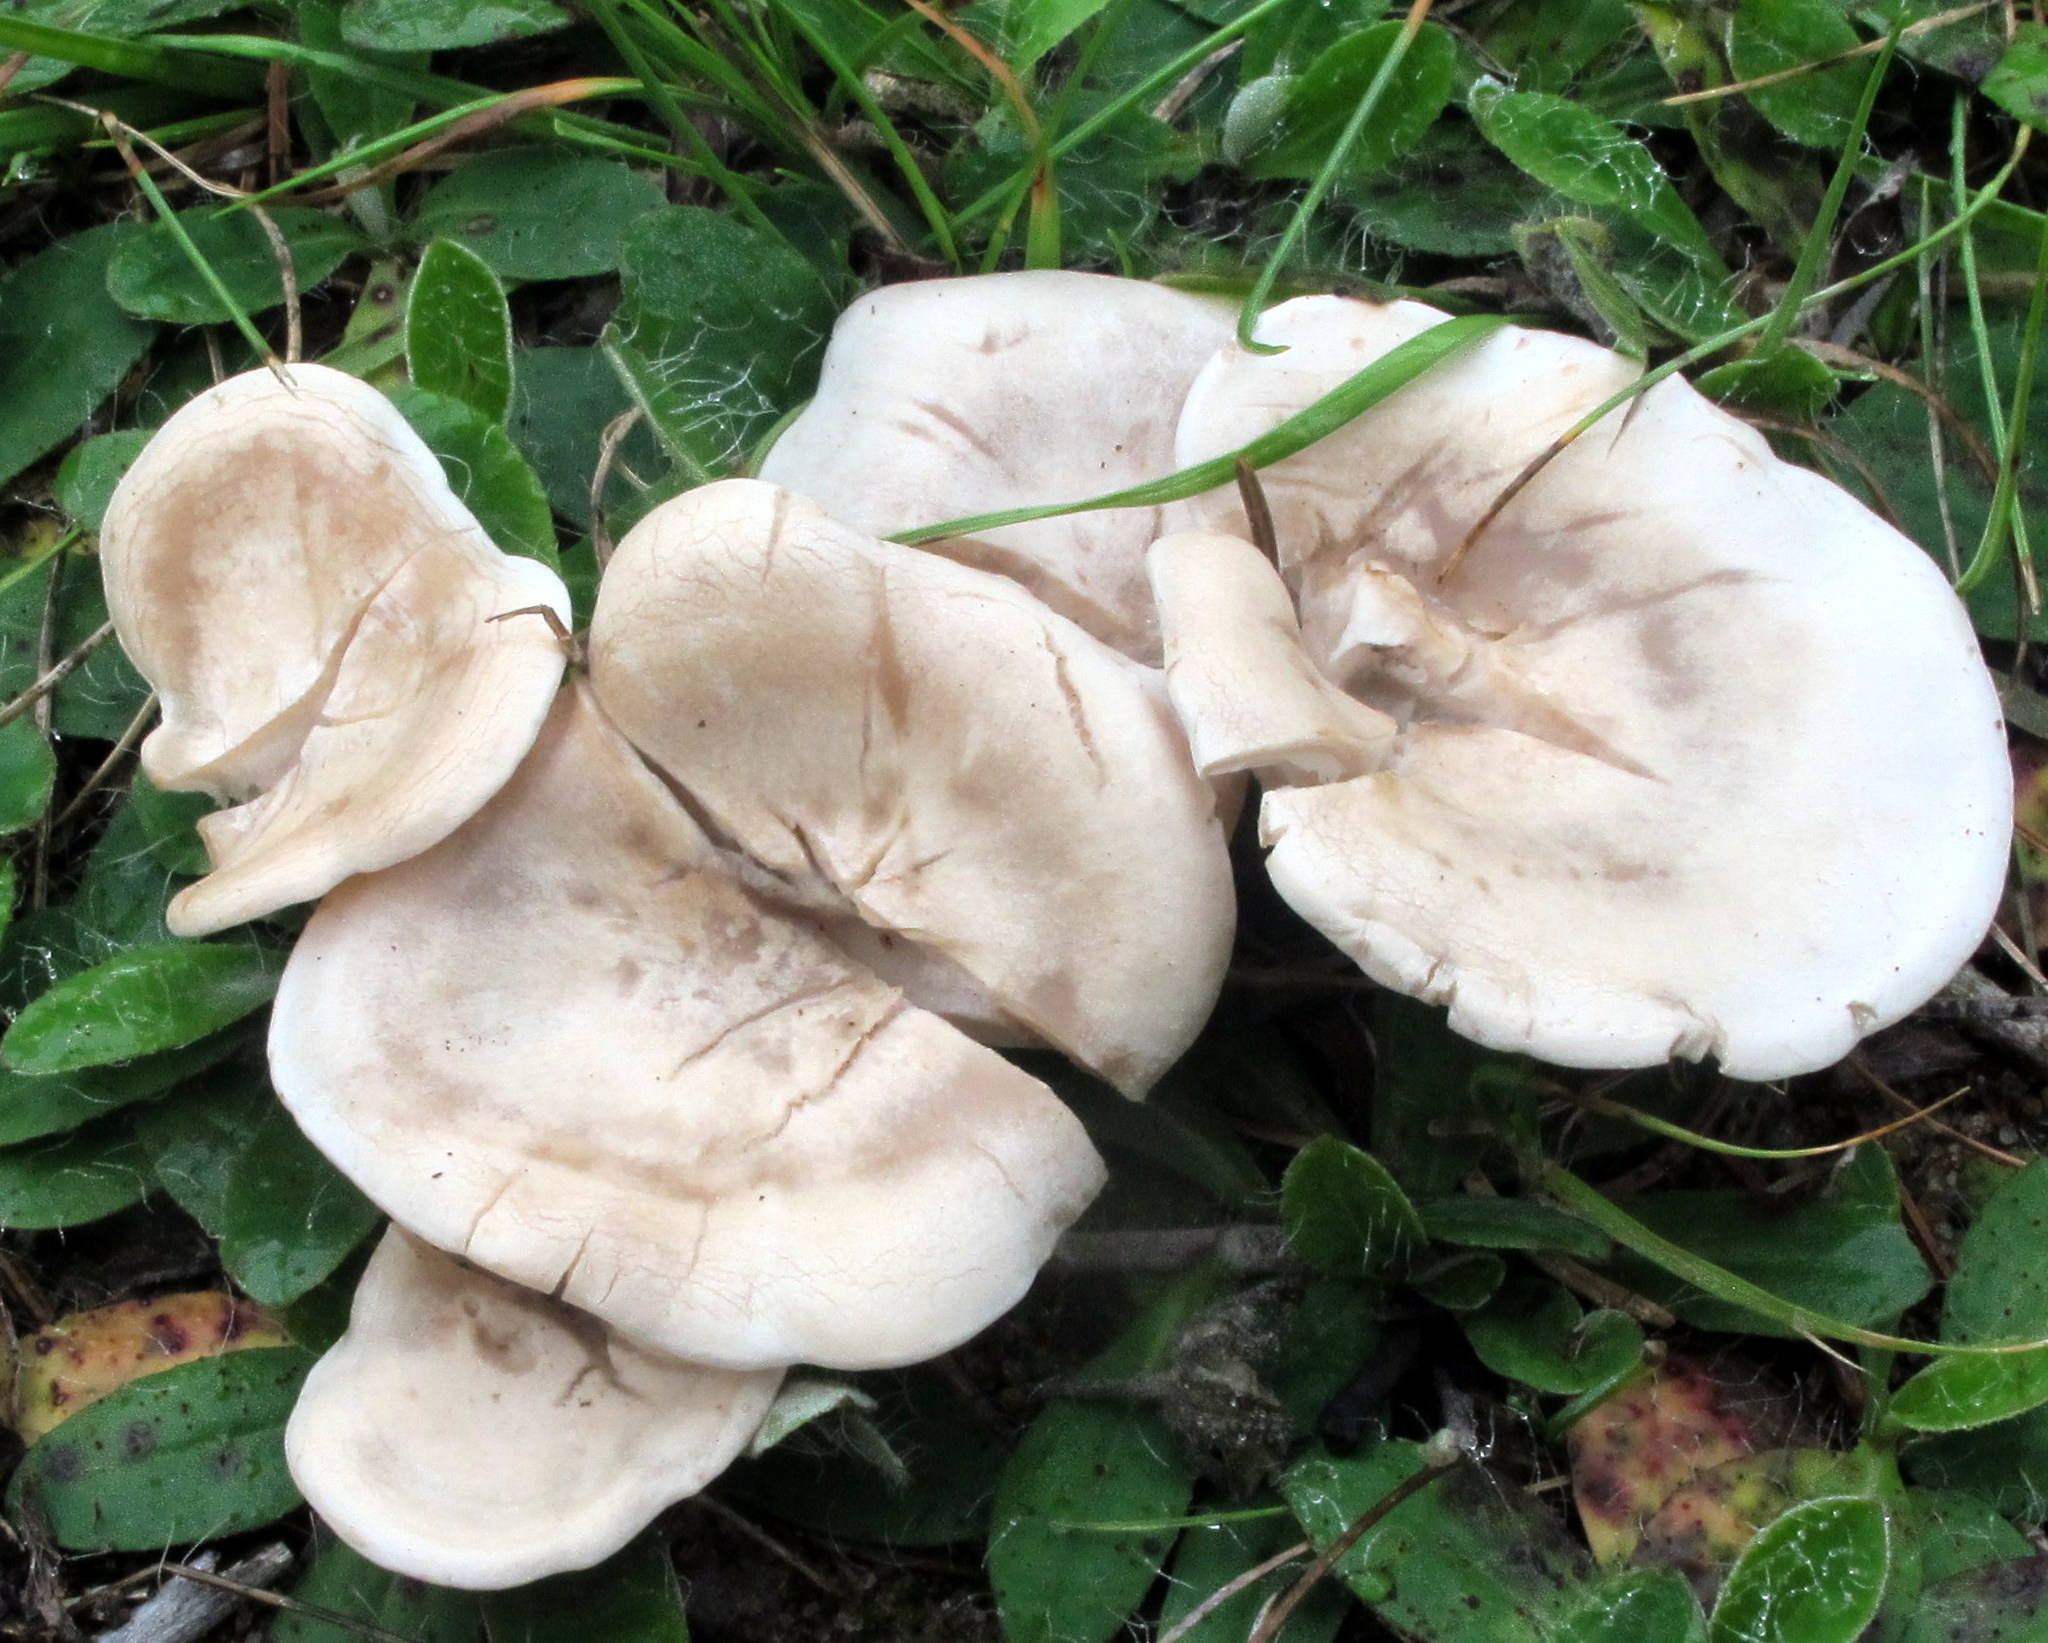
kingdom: Fungi
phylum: Basidiomycota
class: Agaricomycetes
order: Agaricales
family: Tricholomataceae
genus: Lepista
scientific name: Lepista subconnexa
